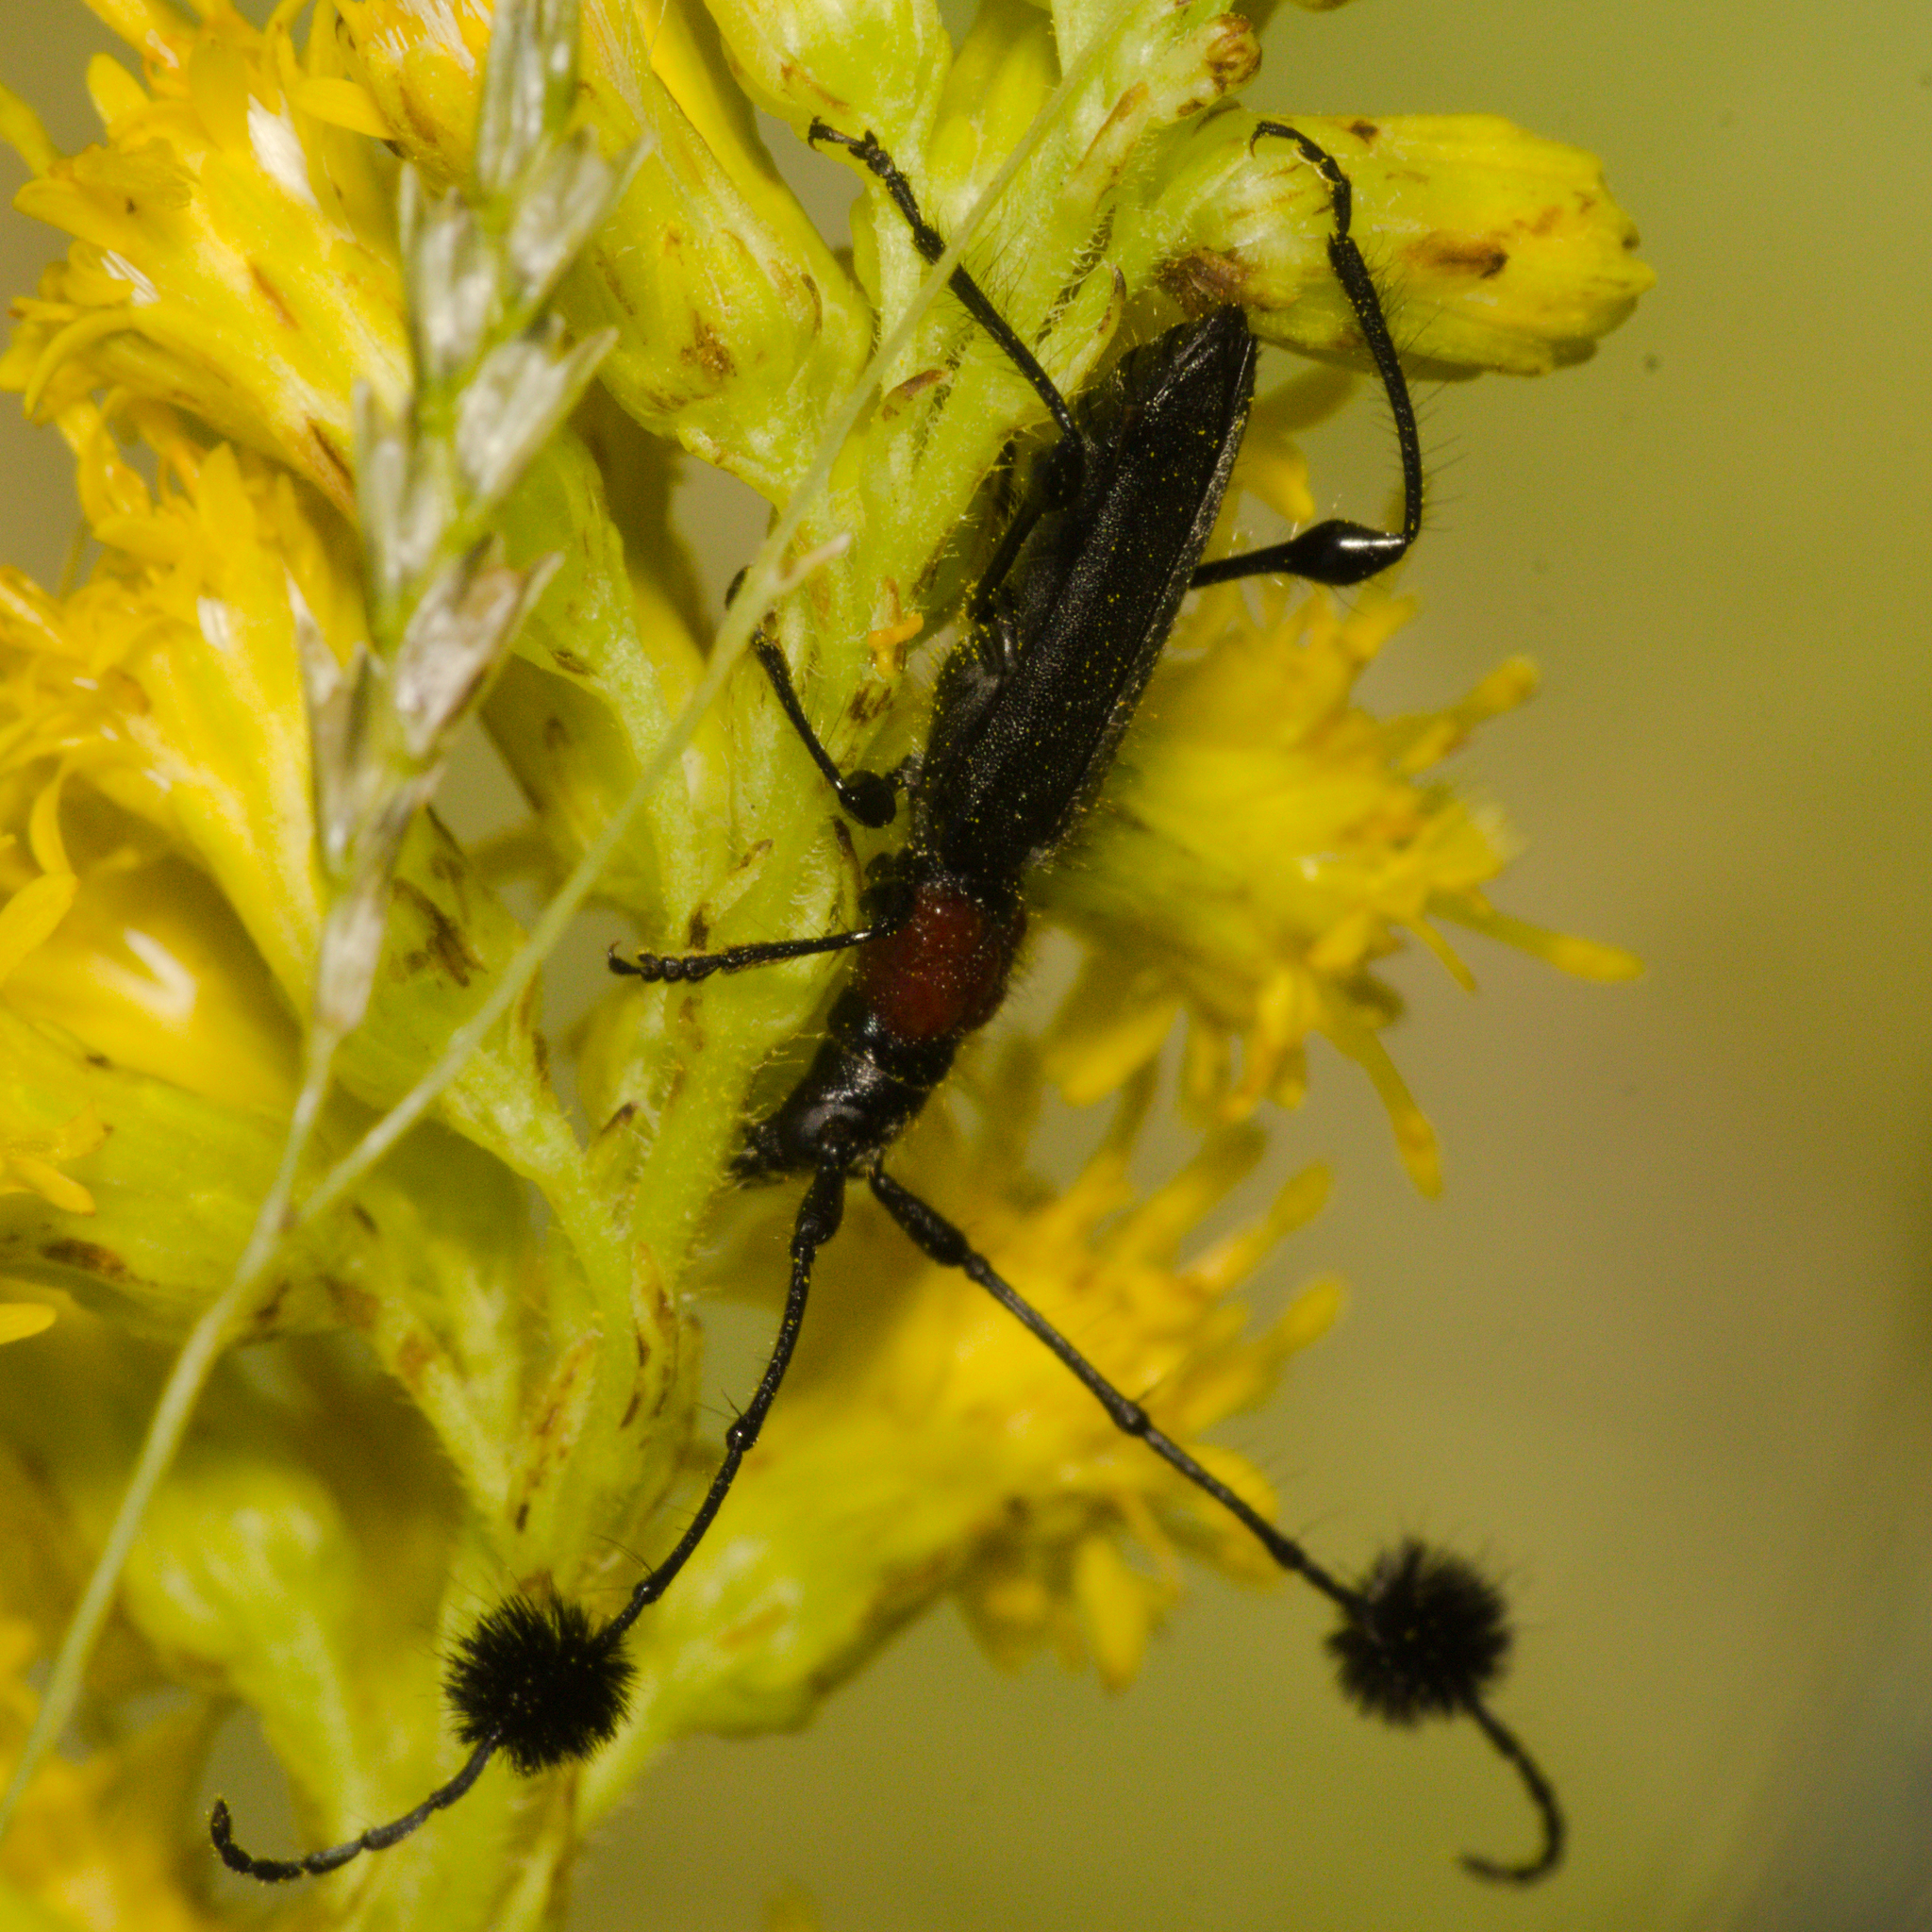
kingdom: Animalia
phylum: Arthropoda
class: Insecta
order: Coleoptera
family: Cerambycidae
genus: Cosmisoma
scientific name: Cosmisoma brullei
